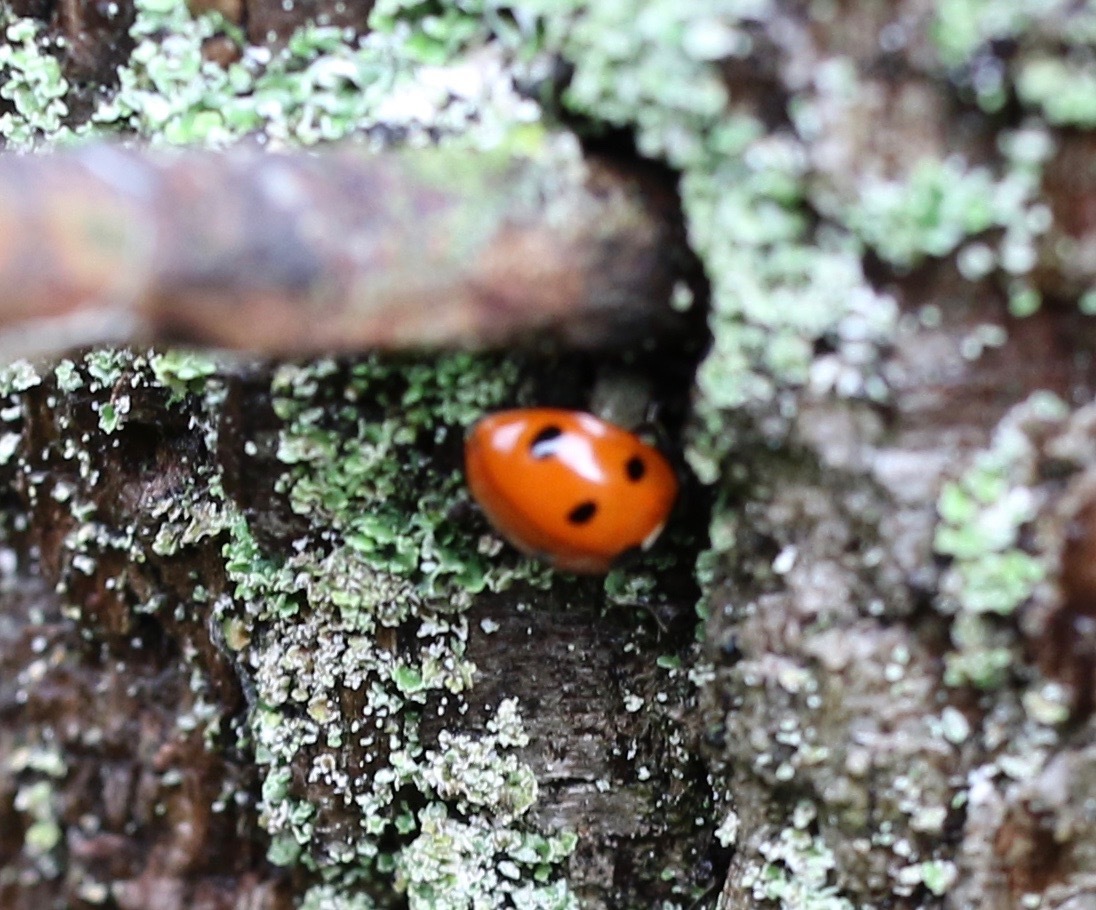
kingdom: Animalia
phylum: Arthropoda
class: Insecta
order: Coleoptera
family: Coccinellidae
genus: Coccinella
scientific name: Coccinella septempunctata
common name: Sevenspotted lady beetle
